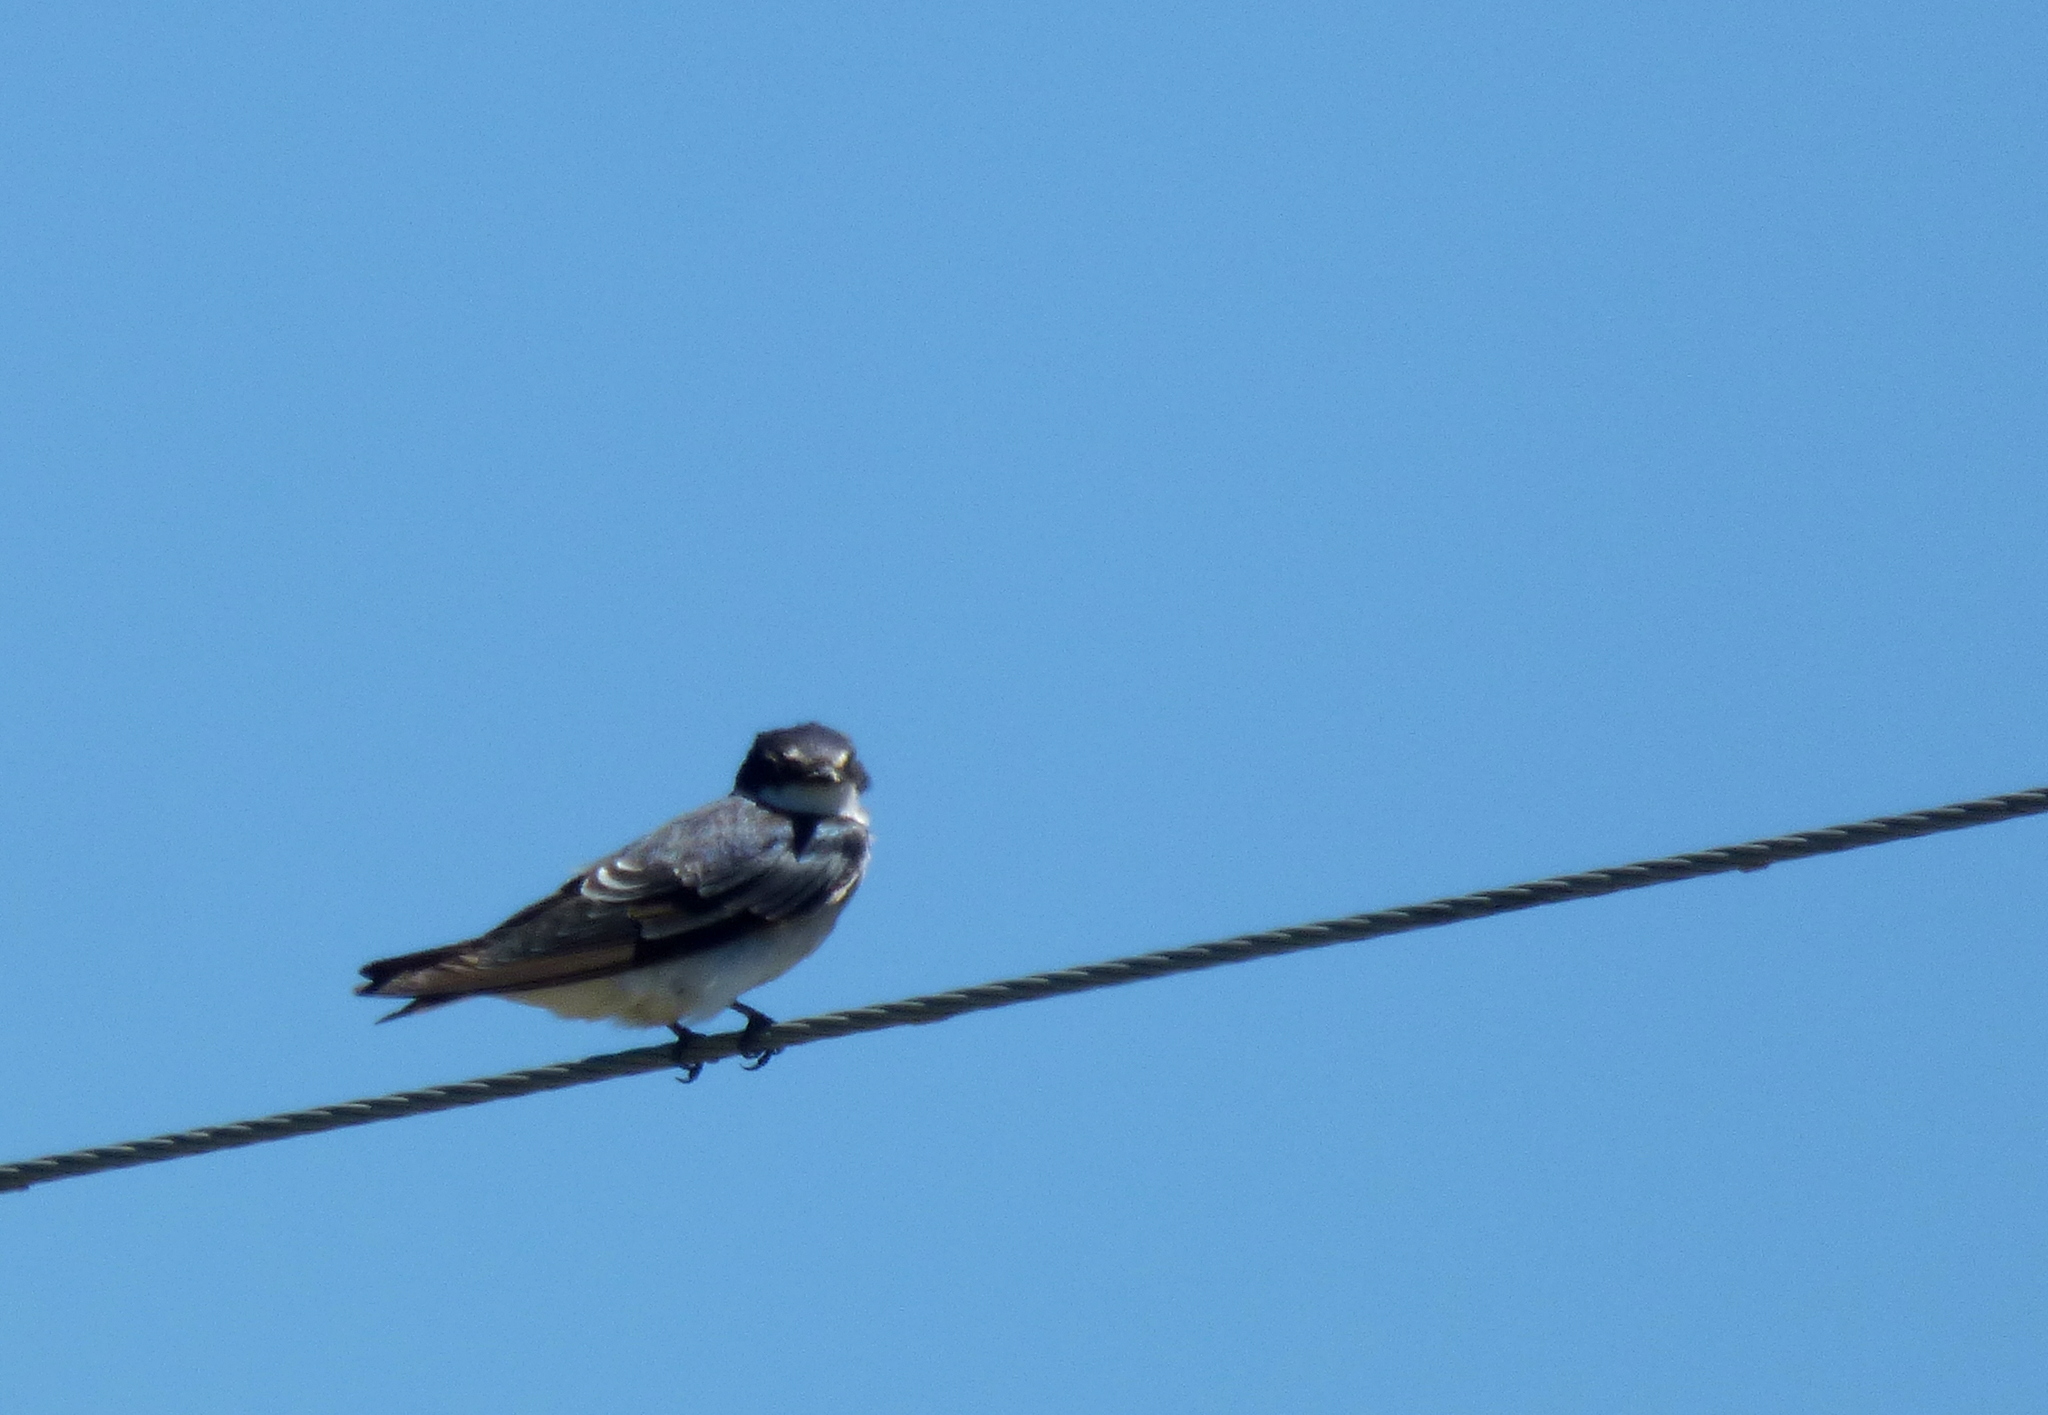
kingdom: Animalia
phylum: Chordata
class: Aves
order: Passeriformes
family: Hirundinidae
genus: Tachycineta
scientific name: Tachycineta leucorrhoa
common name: White-rumped swallow
